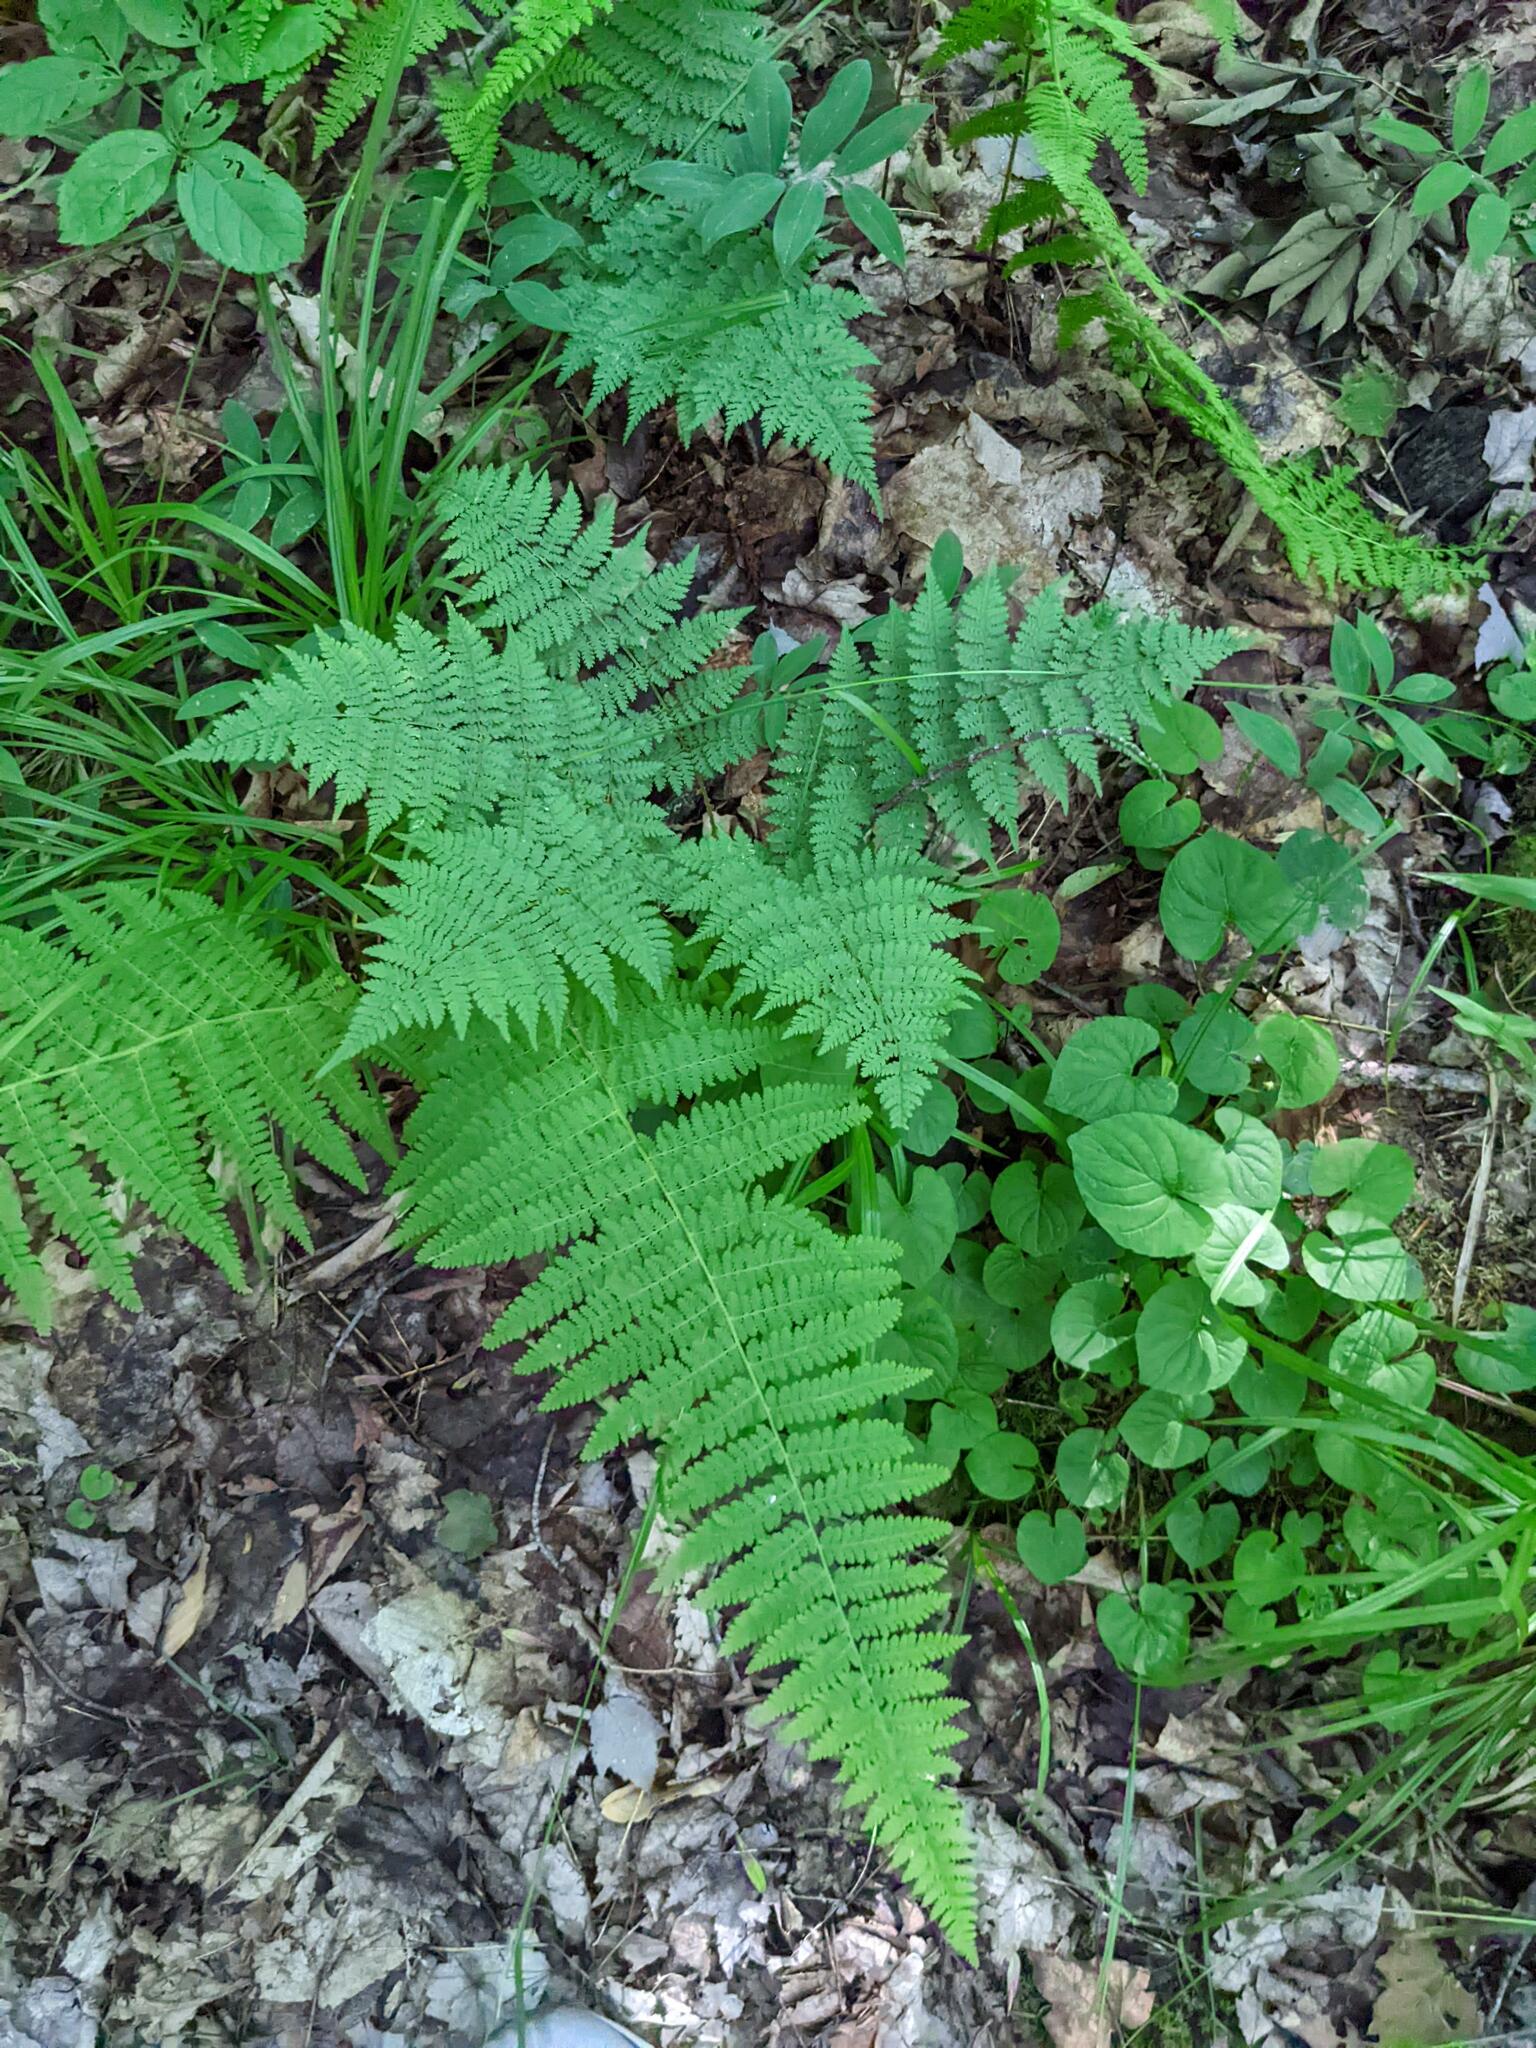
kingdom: Plantae
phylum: Tracheophyta
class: Polypodiopsida
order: Polypodiales
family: Dryopteridaceae
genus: Dryopteris
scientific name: Dryopteris intermedia
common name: Evergreen wood fern
